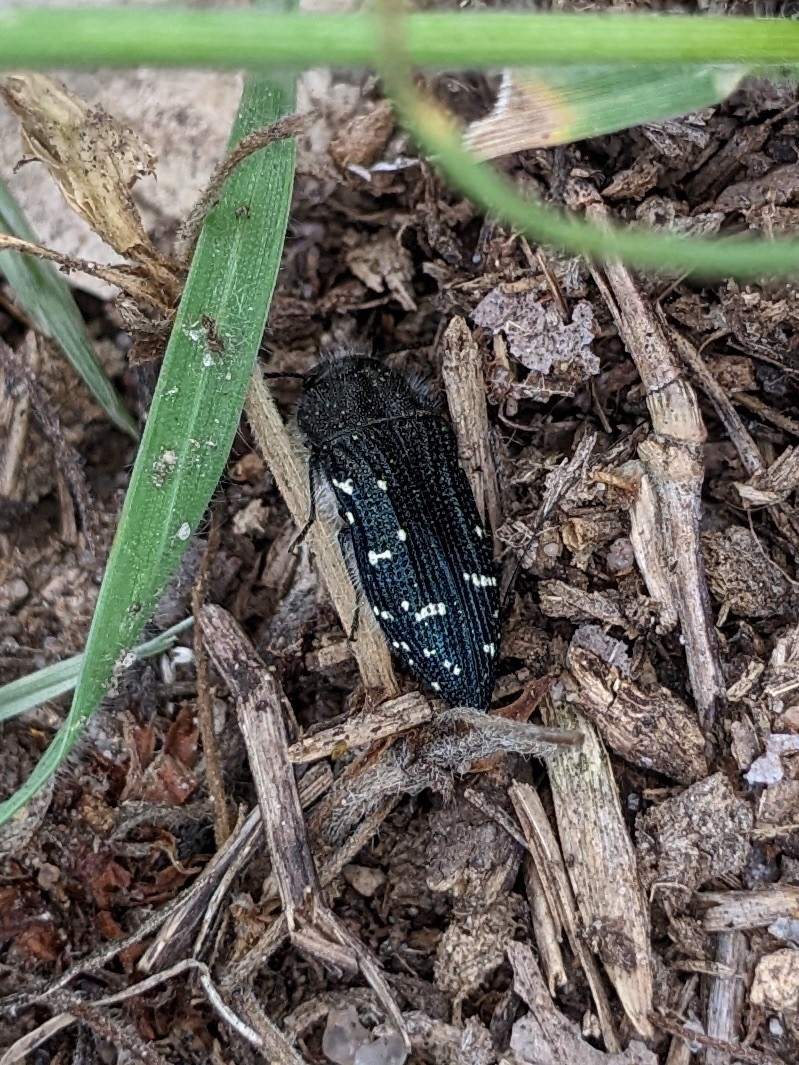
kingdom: Animalia
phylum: Arthropoda
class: Insecta
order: Coleoptera
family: Buprestidae
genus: Acmaeodera
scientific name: Acmaeodera ornatoides
